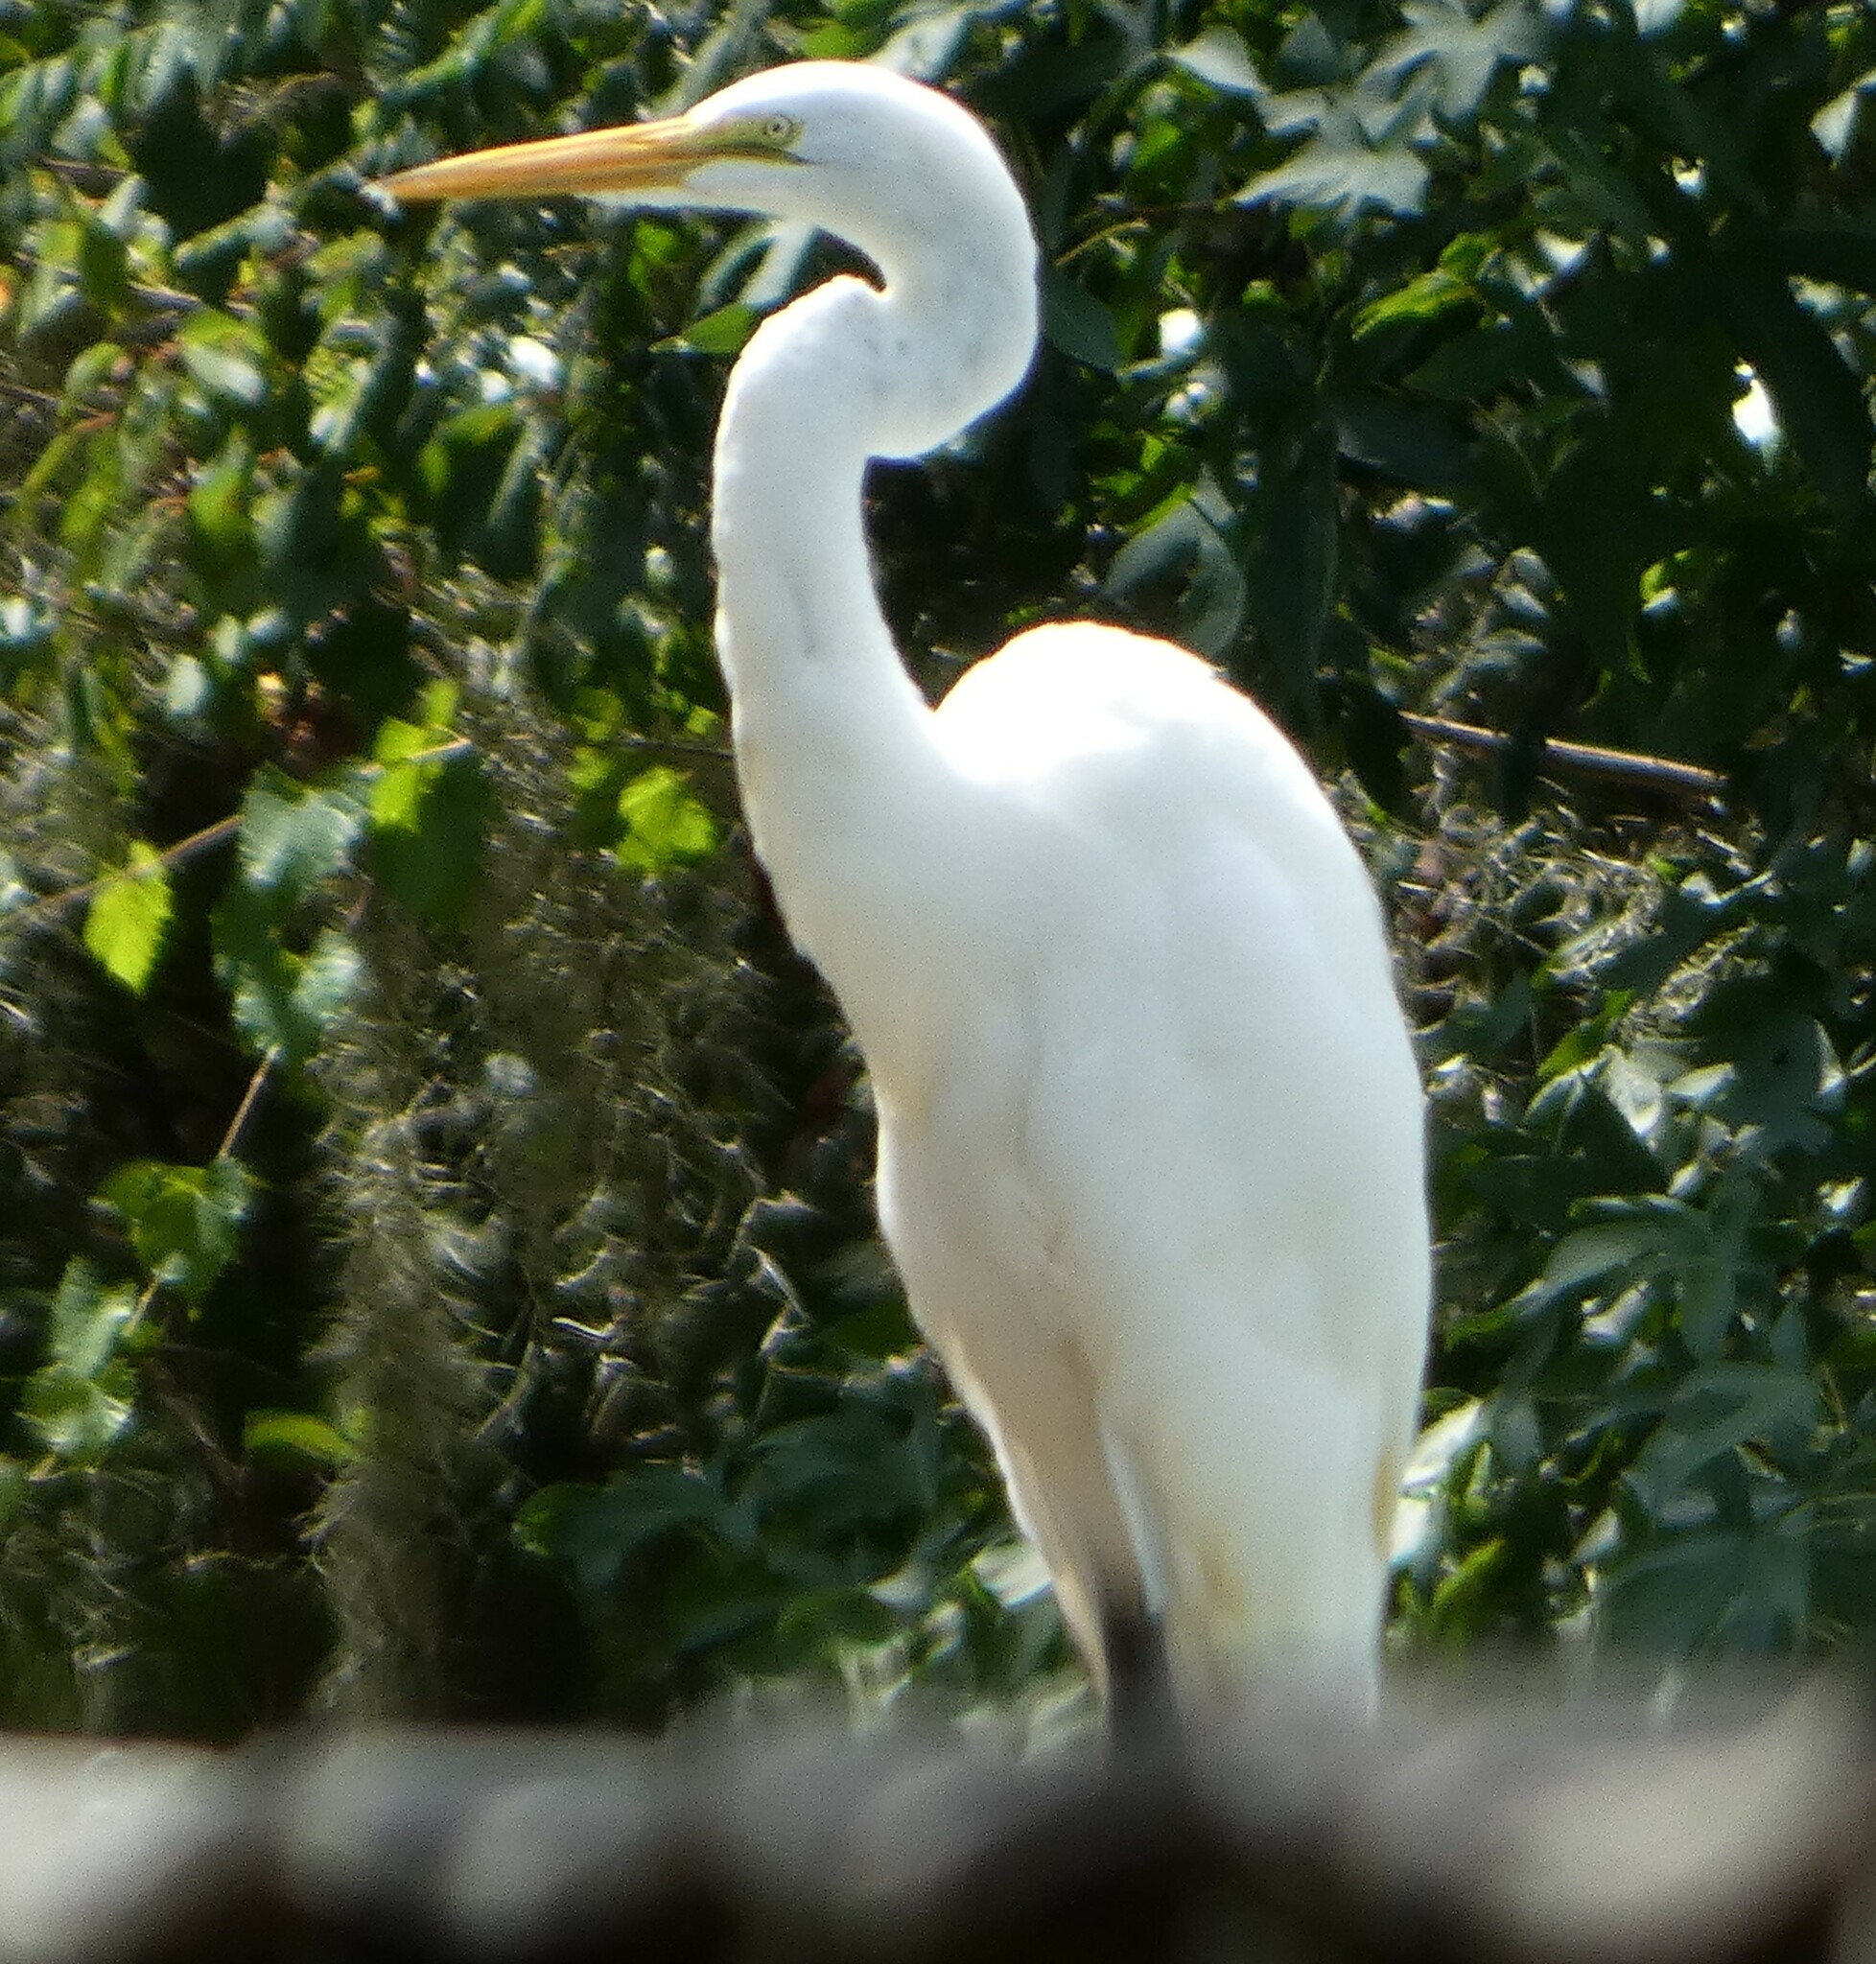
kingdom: Animalia
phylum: Chordata
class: Aves
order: Pelecaniformes
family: Ardeidae
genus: Ardea
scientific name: Ardea alba
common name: Great egret
